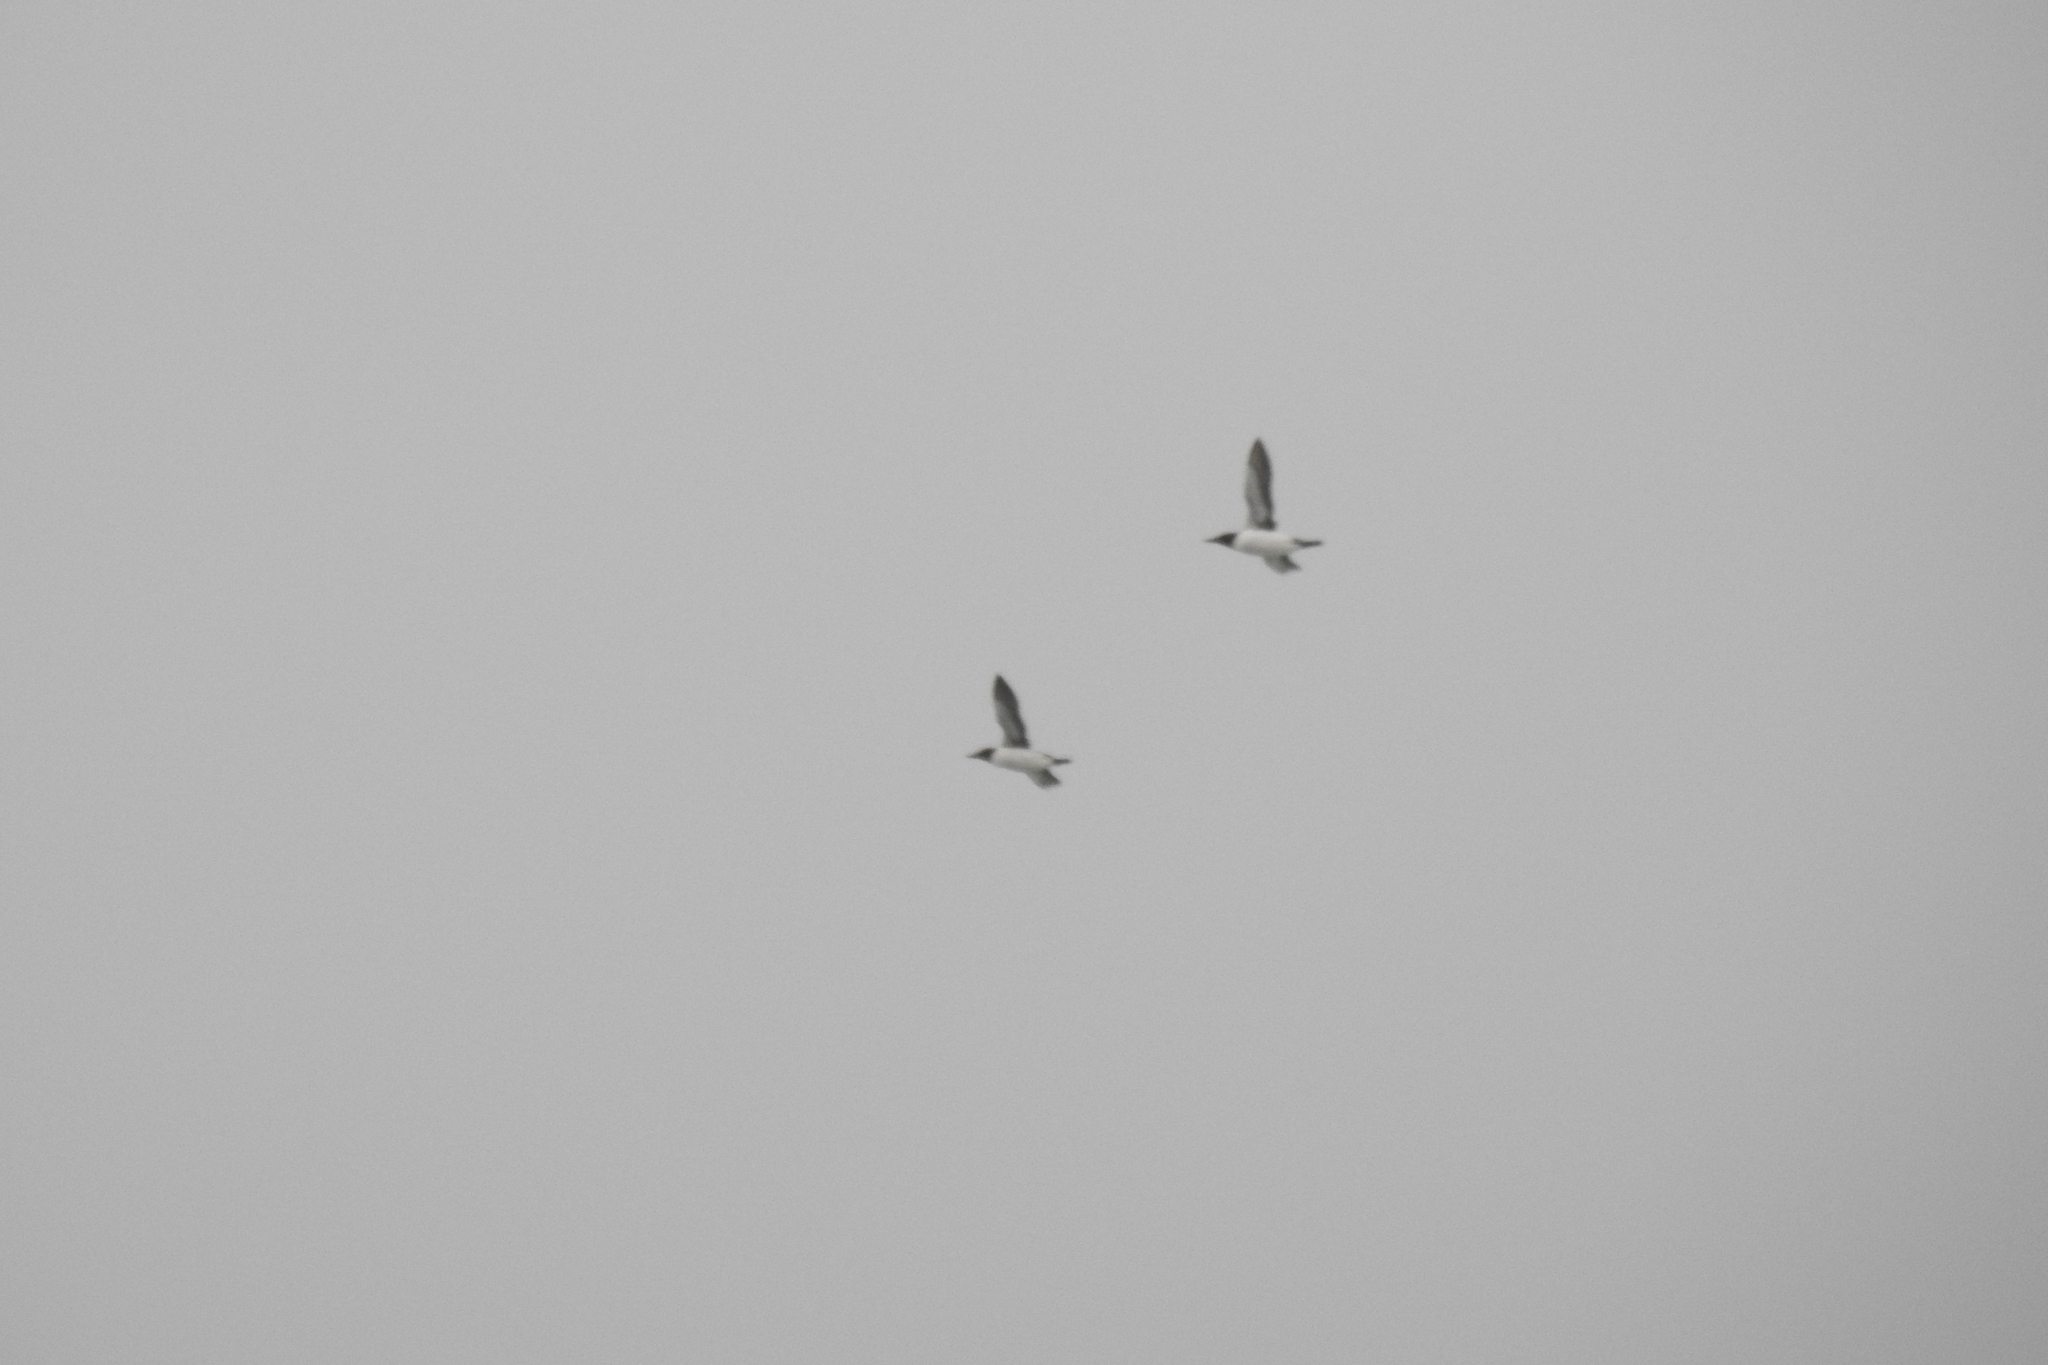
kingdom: Animalia
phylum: Chordata
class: Aves
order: Charadriiformes
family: Alcidae
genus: Uria
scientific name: Uria aalge
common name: Common murre
